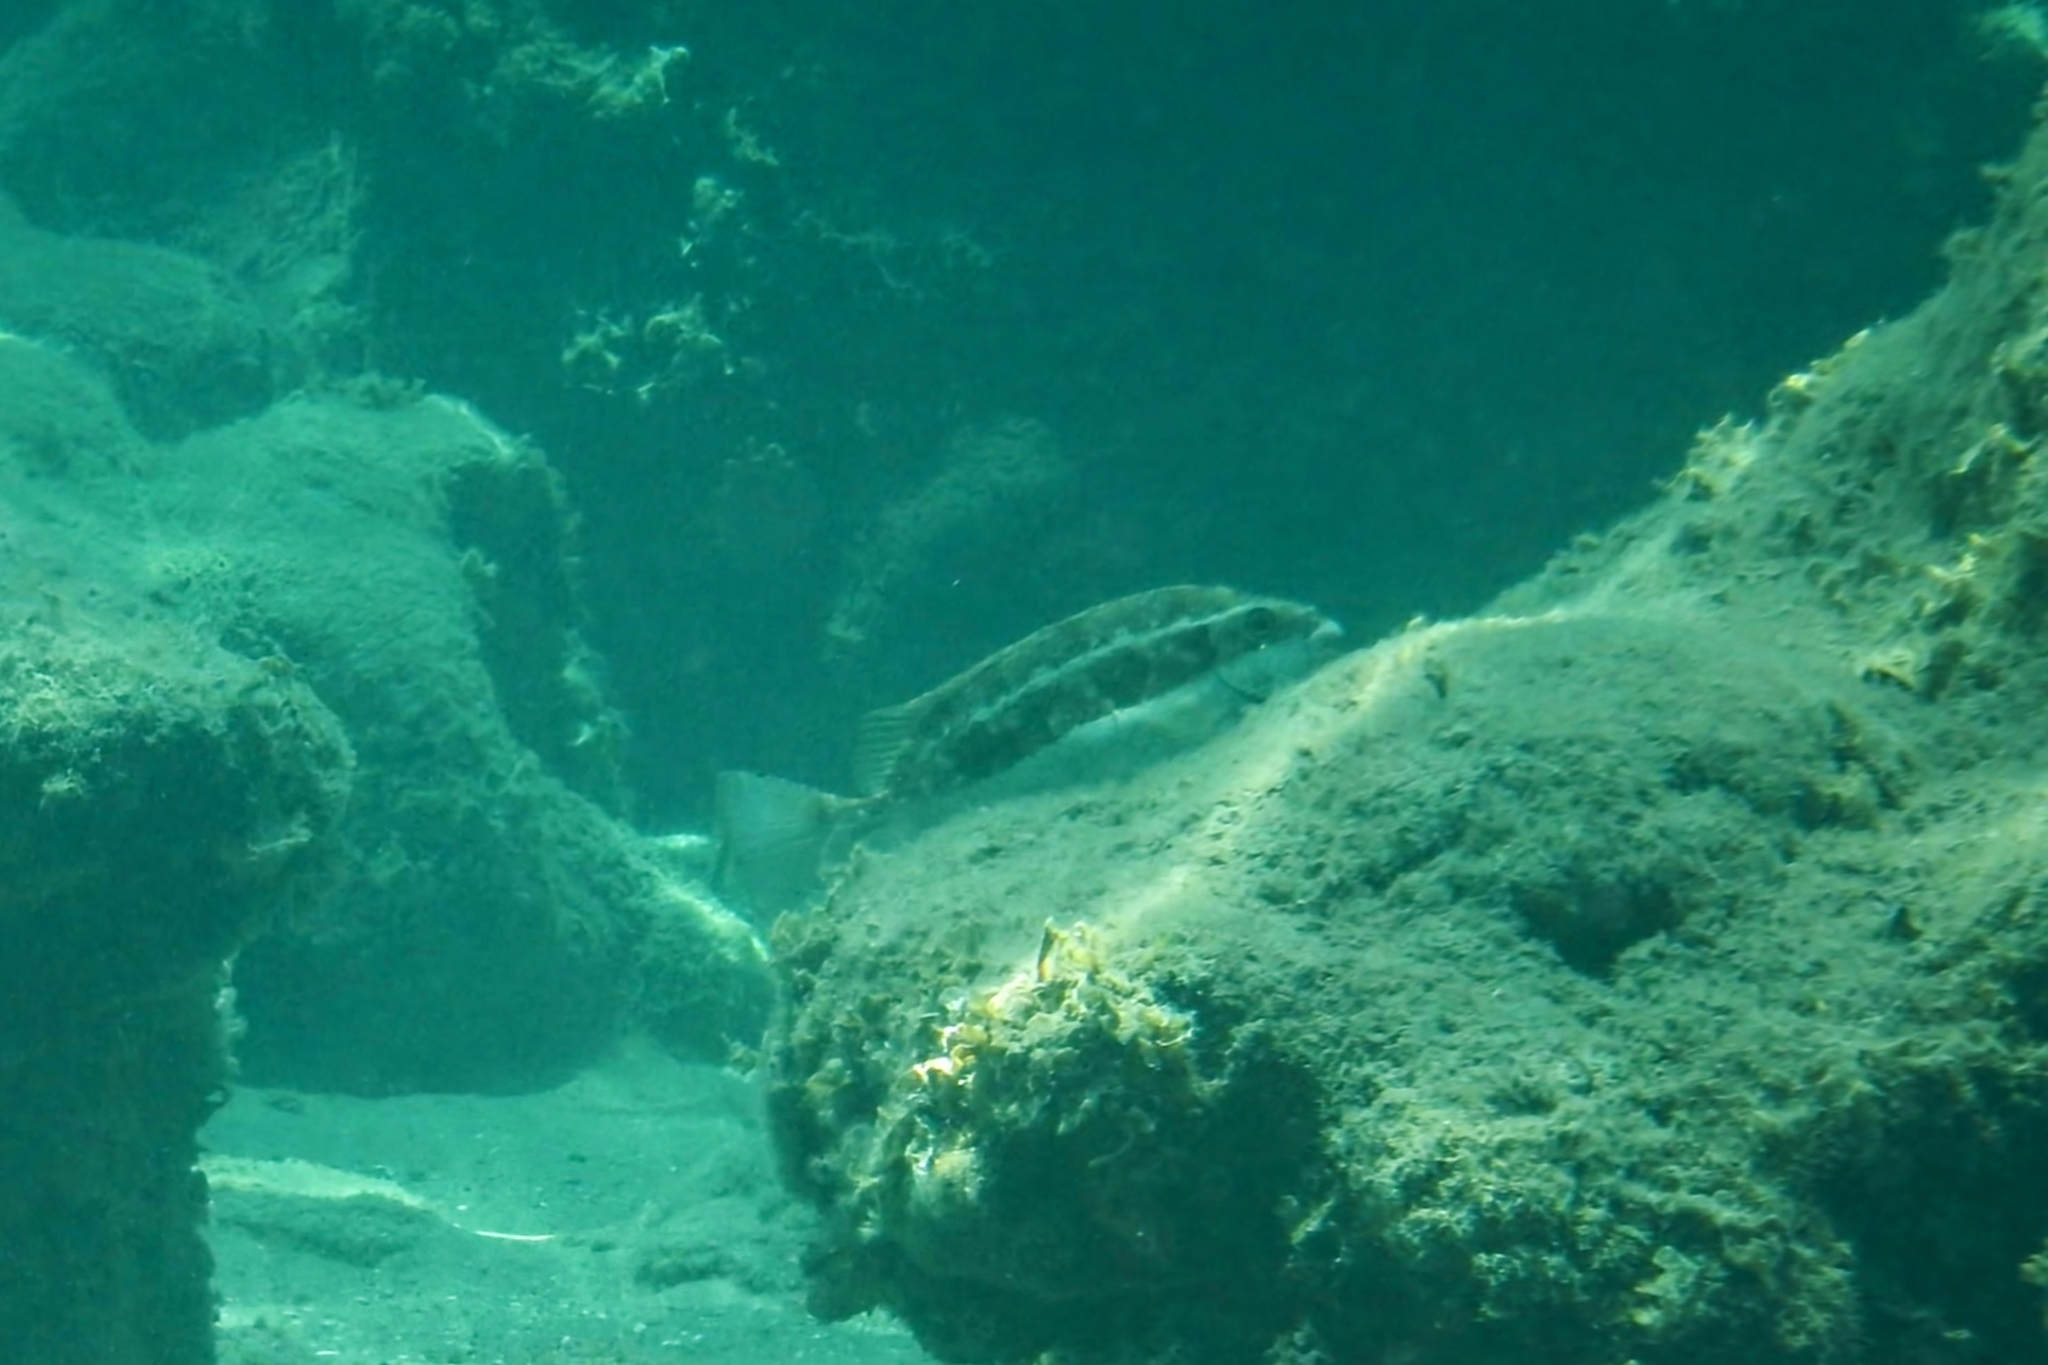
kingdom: Animalia
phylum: Chordata
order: Perciformes
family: Siganidae
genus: Siganus
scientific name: Siganus luridus
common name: Dusky spinefoot
